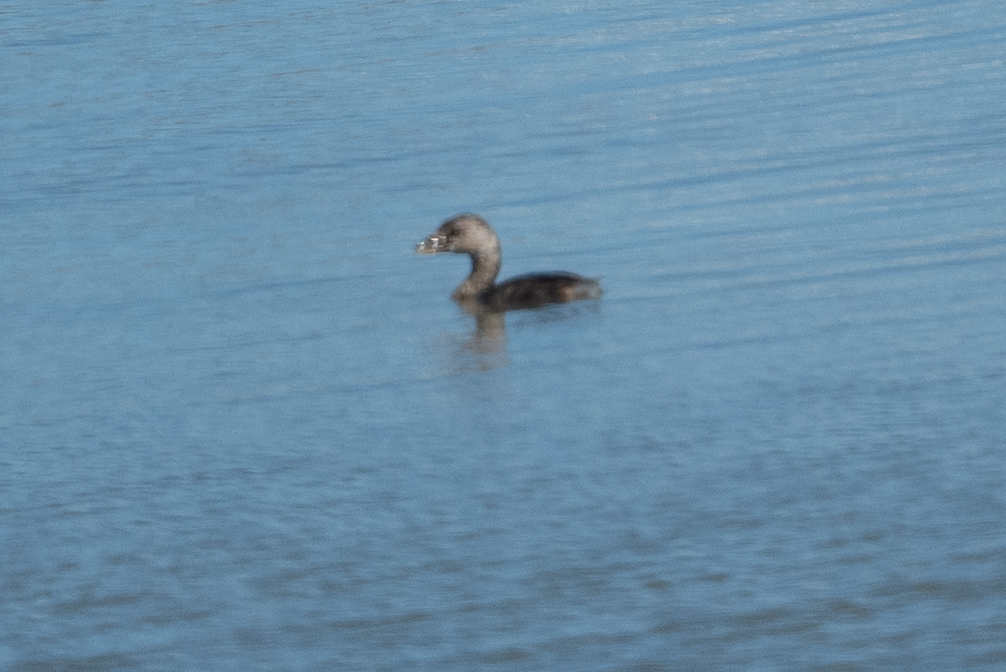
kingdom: Animalia
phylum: Chordata
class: Aves
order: Podicipediformes
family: Podicipedidae
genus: Podilymbus
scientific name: Podilymbus podiceps
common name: Pied-billed grebe
